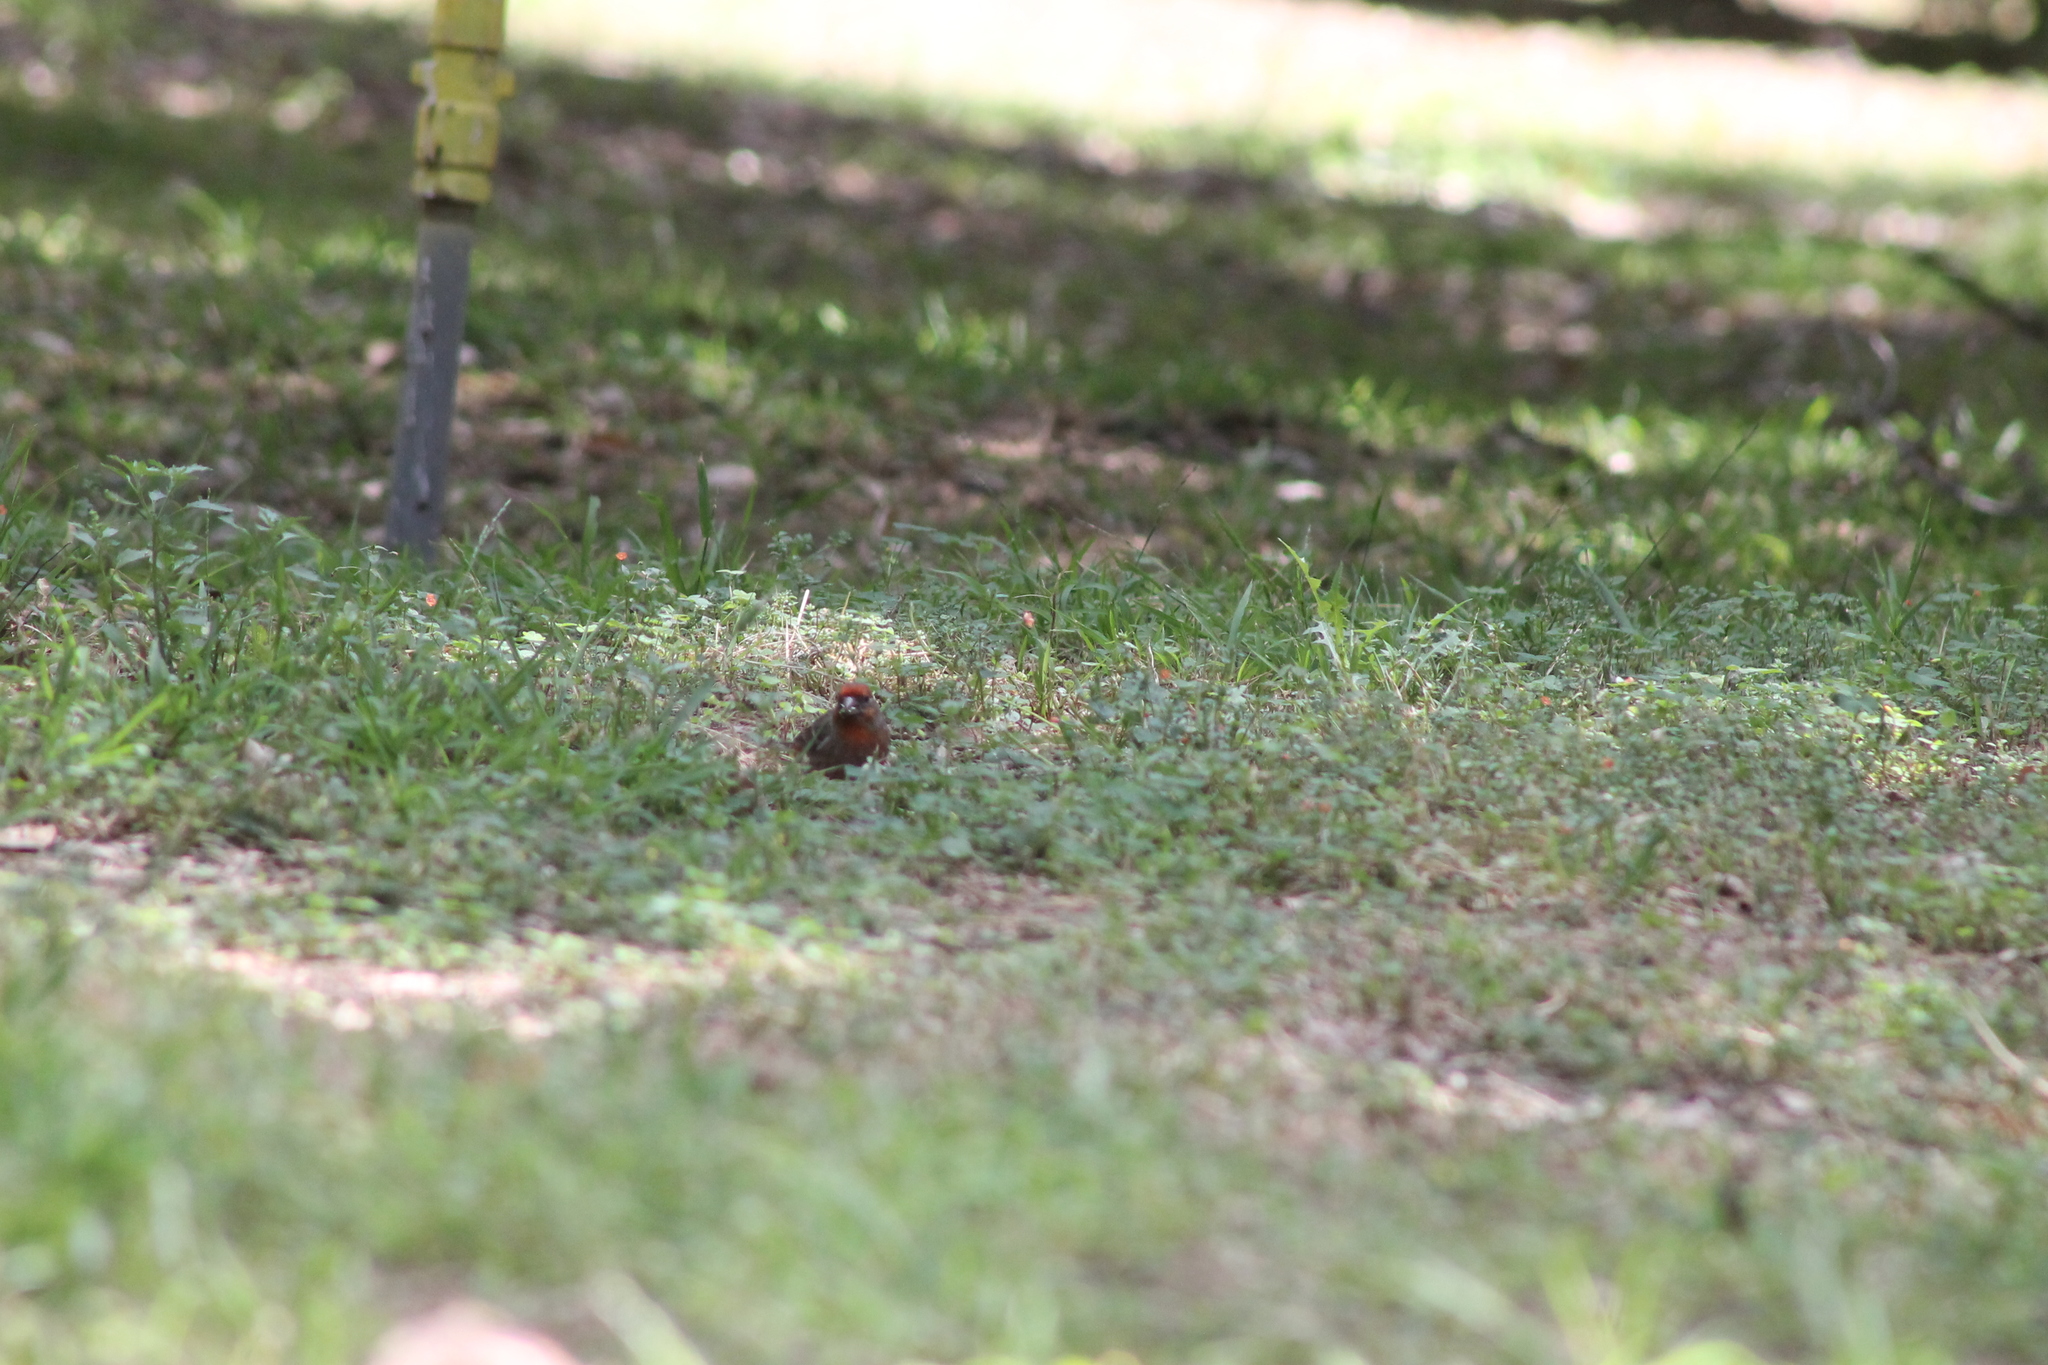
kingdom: Animalia
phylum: Chordata
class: Aves
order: Passeriformes
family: Fringillidae
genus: Haemorhous
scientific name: Haemorhous mexicanus
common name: House finch
